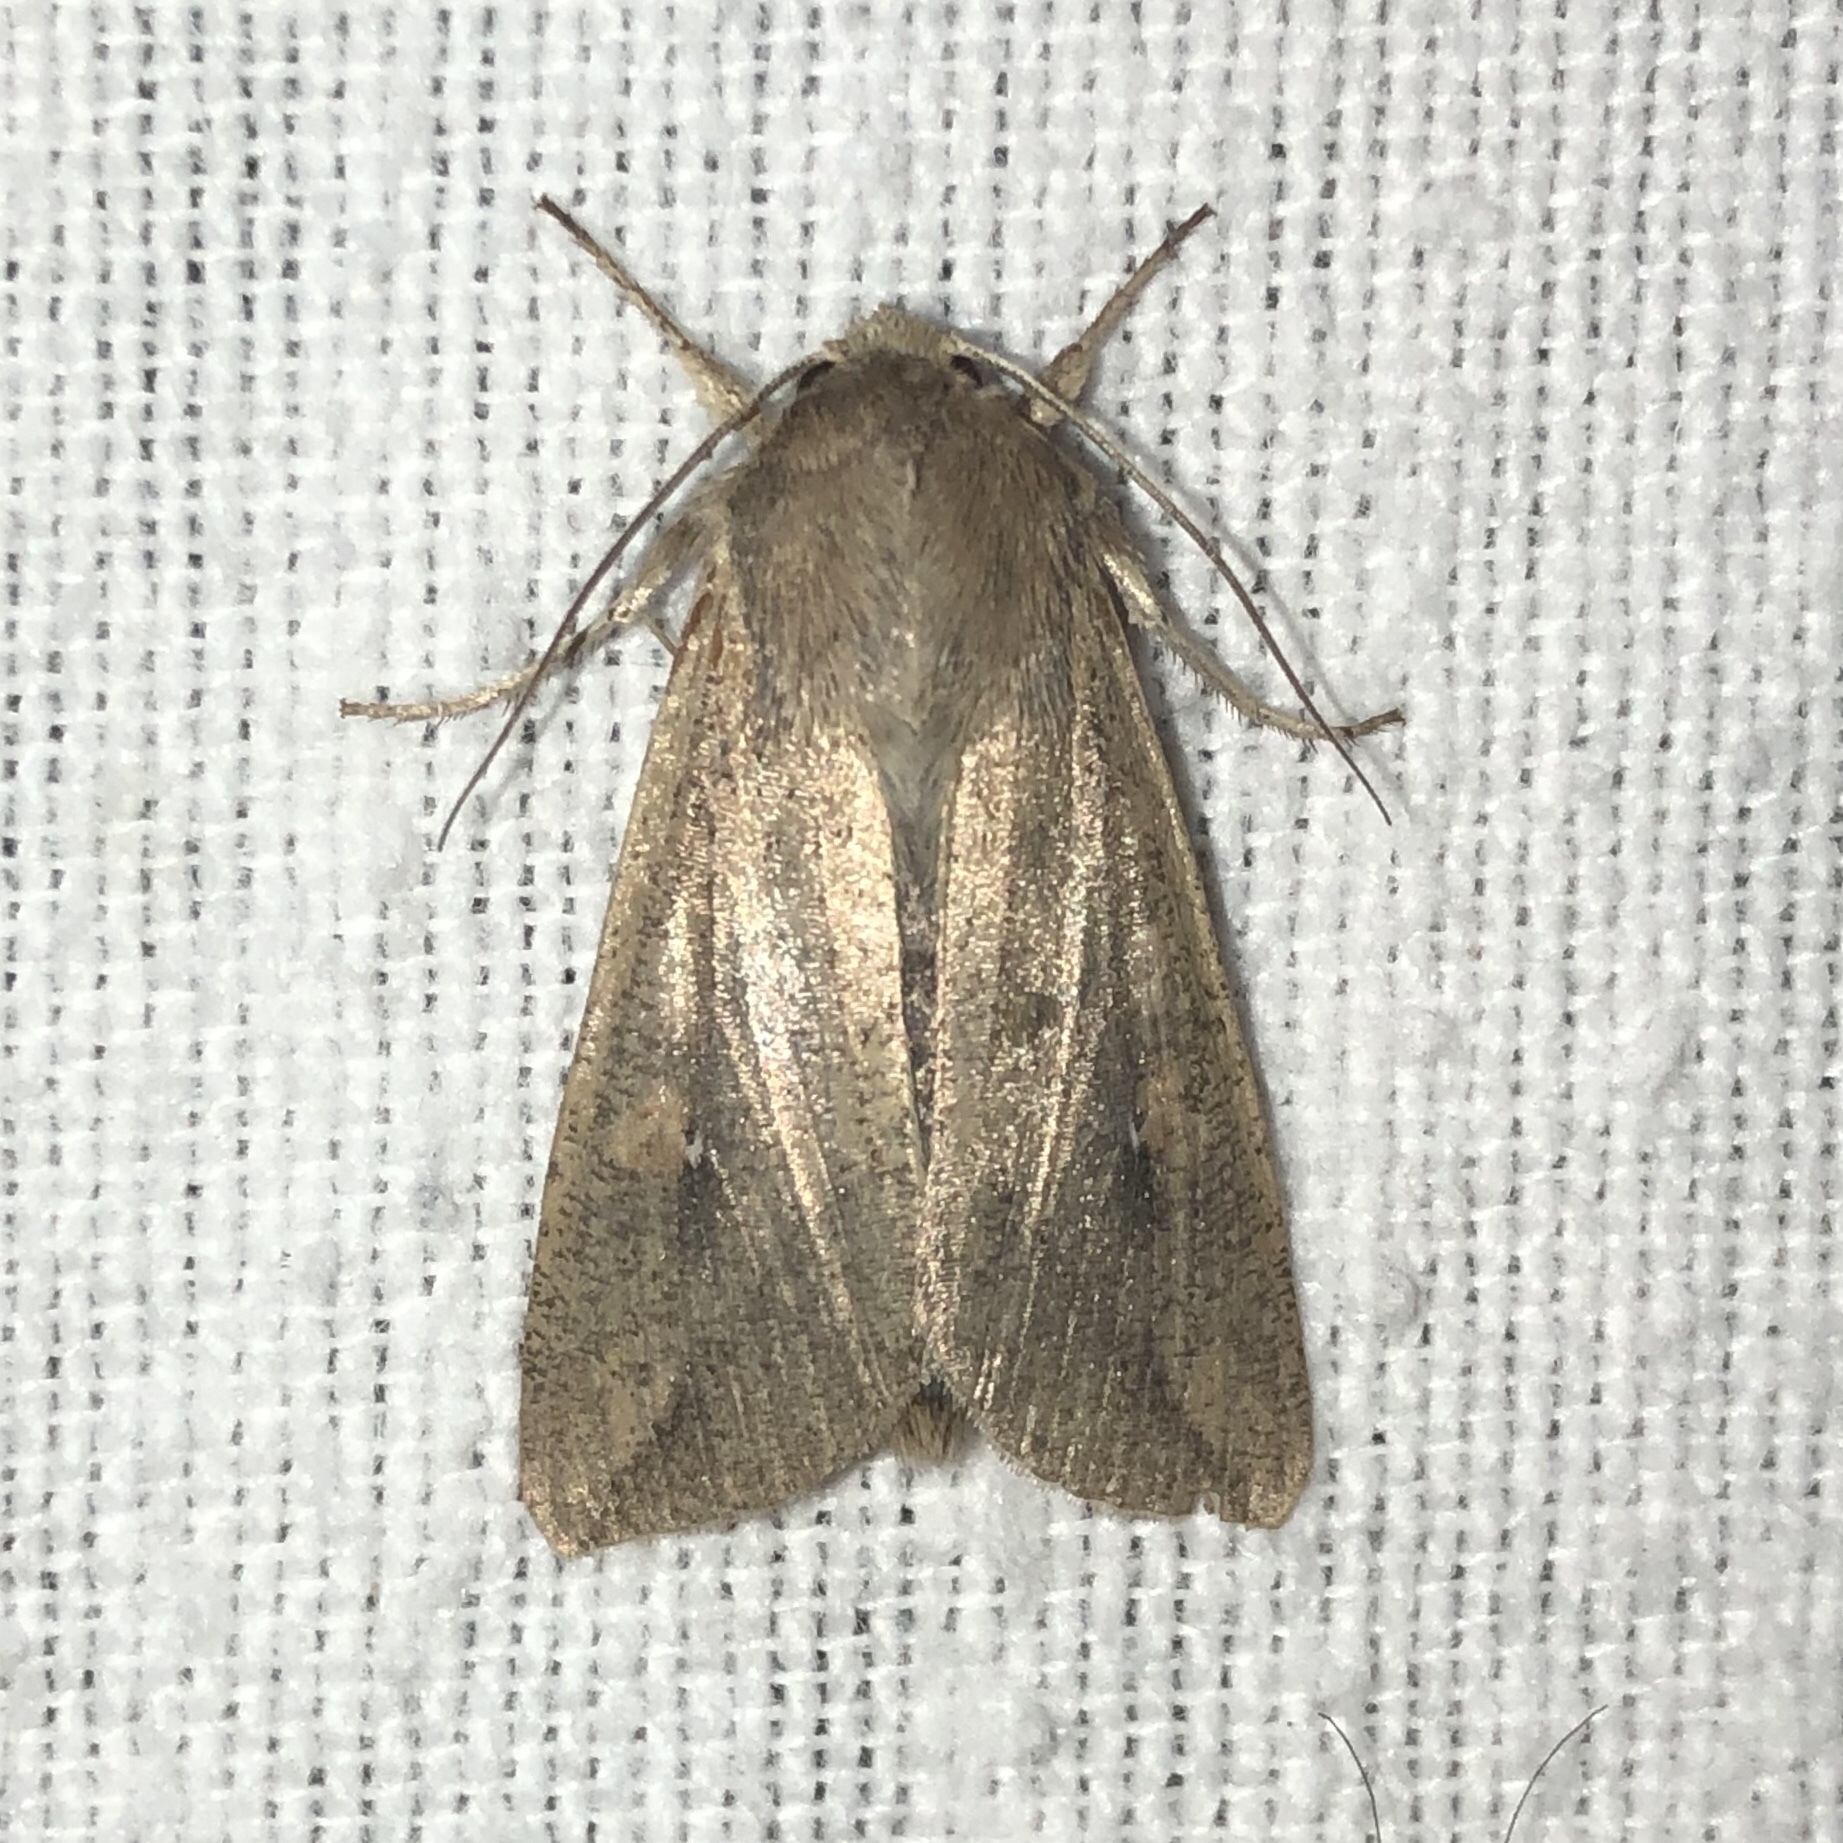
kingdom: Animalia
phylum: Arthropoda
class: Insecta
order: Lepidoptera
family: Noctuidae
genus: Mythimna
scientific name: Mythimna unipuncta
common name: White-speck
